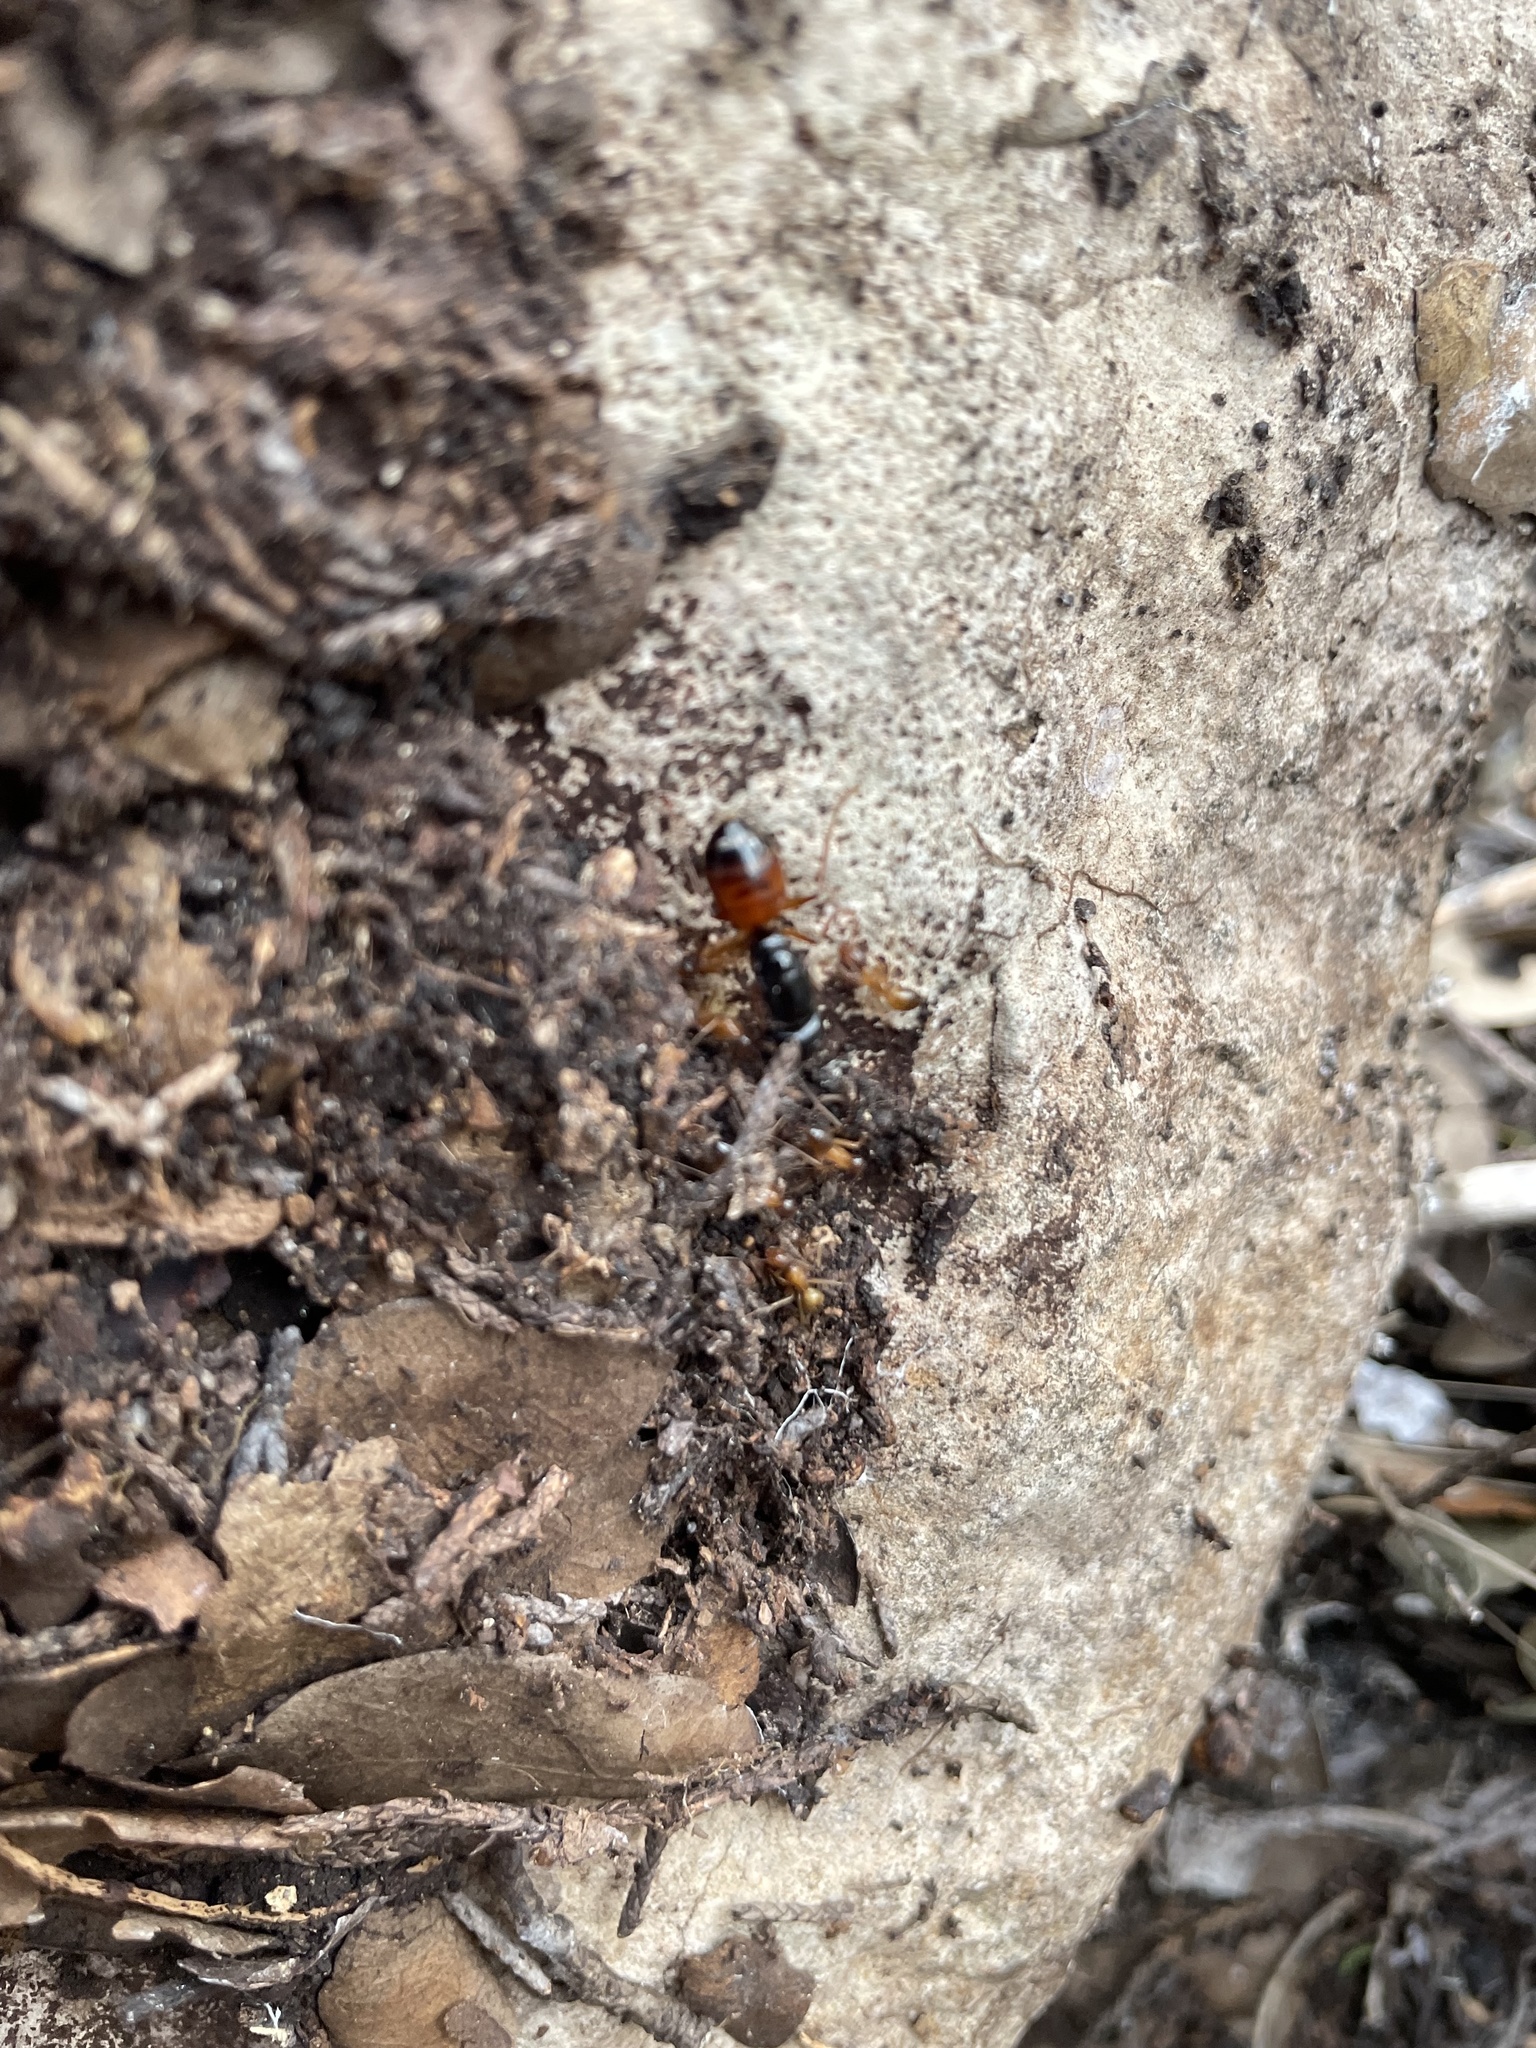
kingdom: Animalia
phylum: Arthropoda
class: Insecta
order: Hymenoptera
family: Formicidae
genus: Camponotus
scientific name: Camponotus sansabeanus
